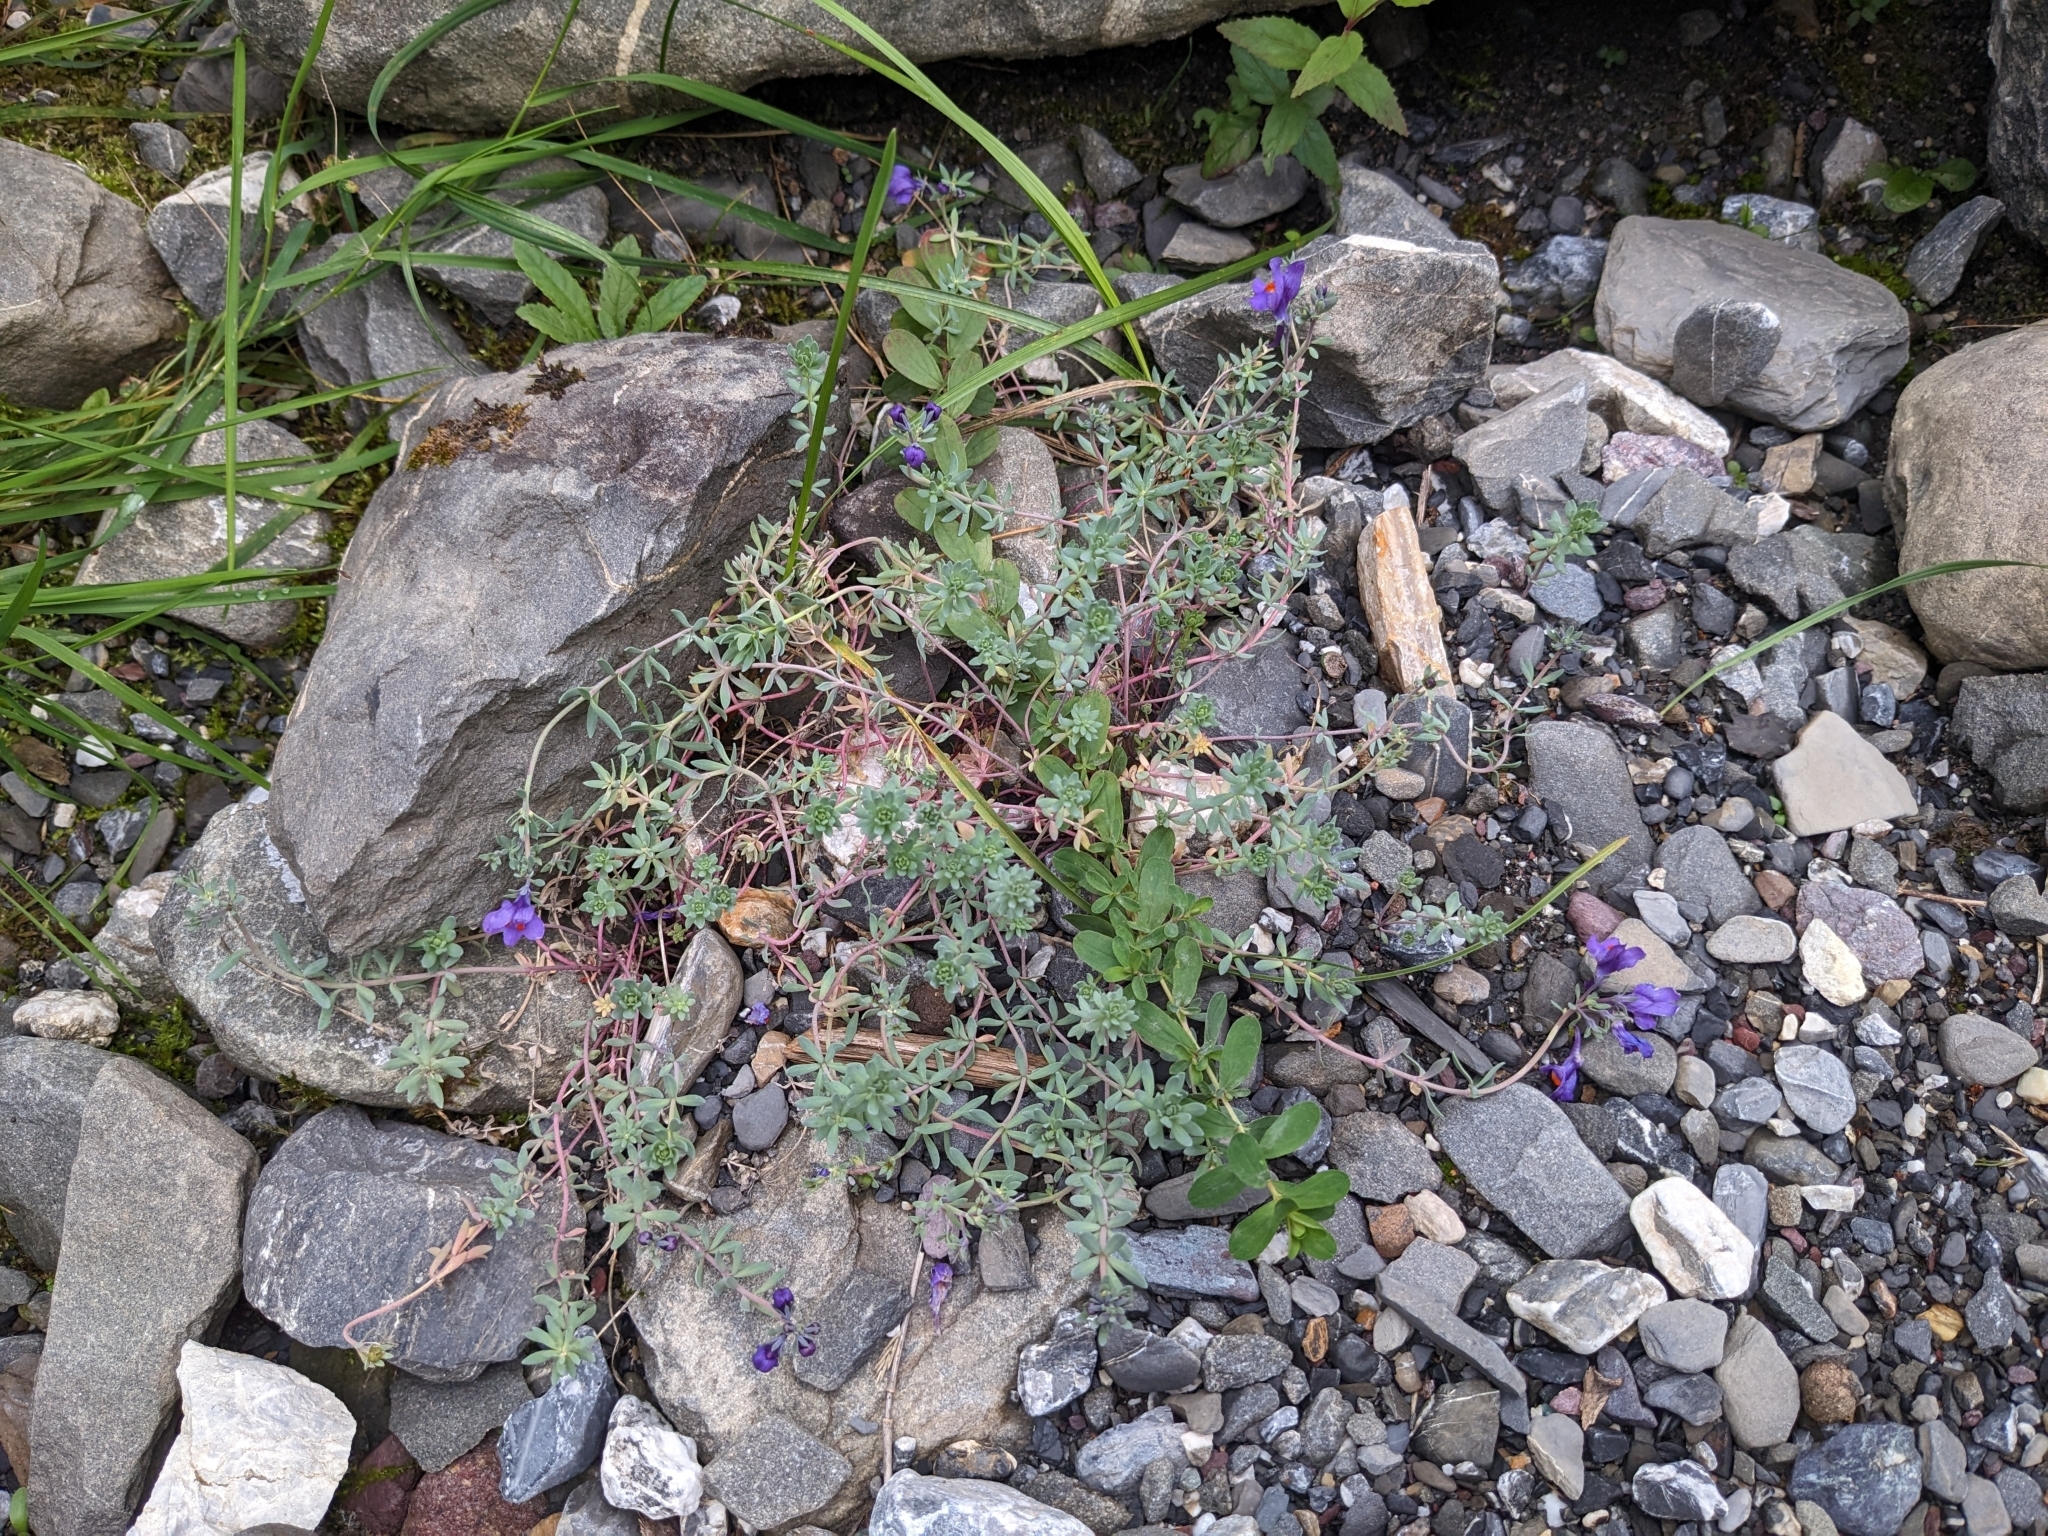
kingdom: Plantae
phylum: Tracheophyta
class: Magnoliopsida
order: Lamiales
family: Plantaginaceae
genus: Linaria
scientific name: Linaria alpina
